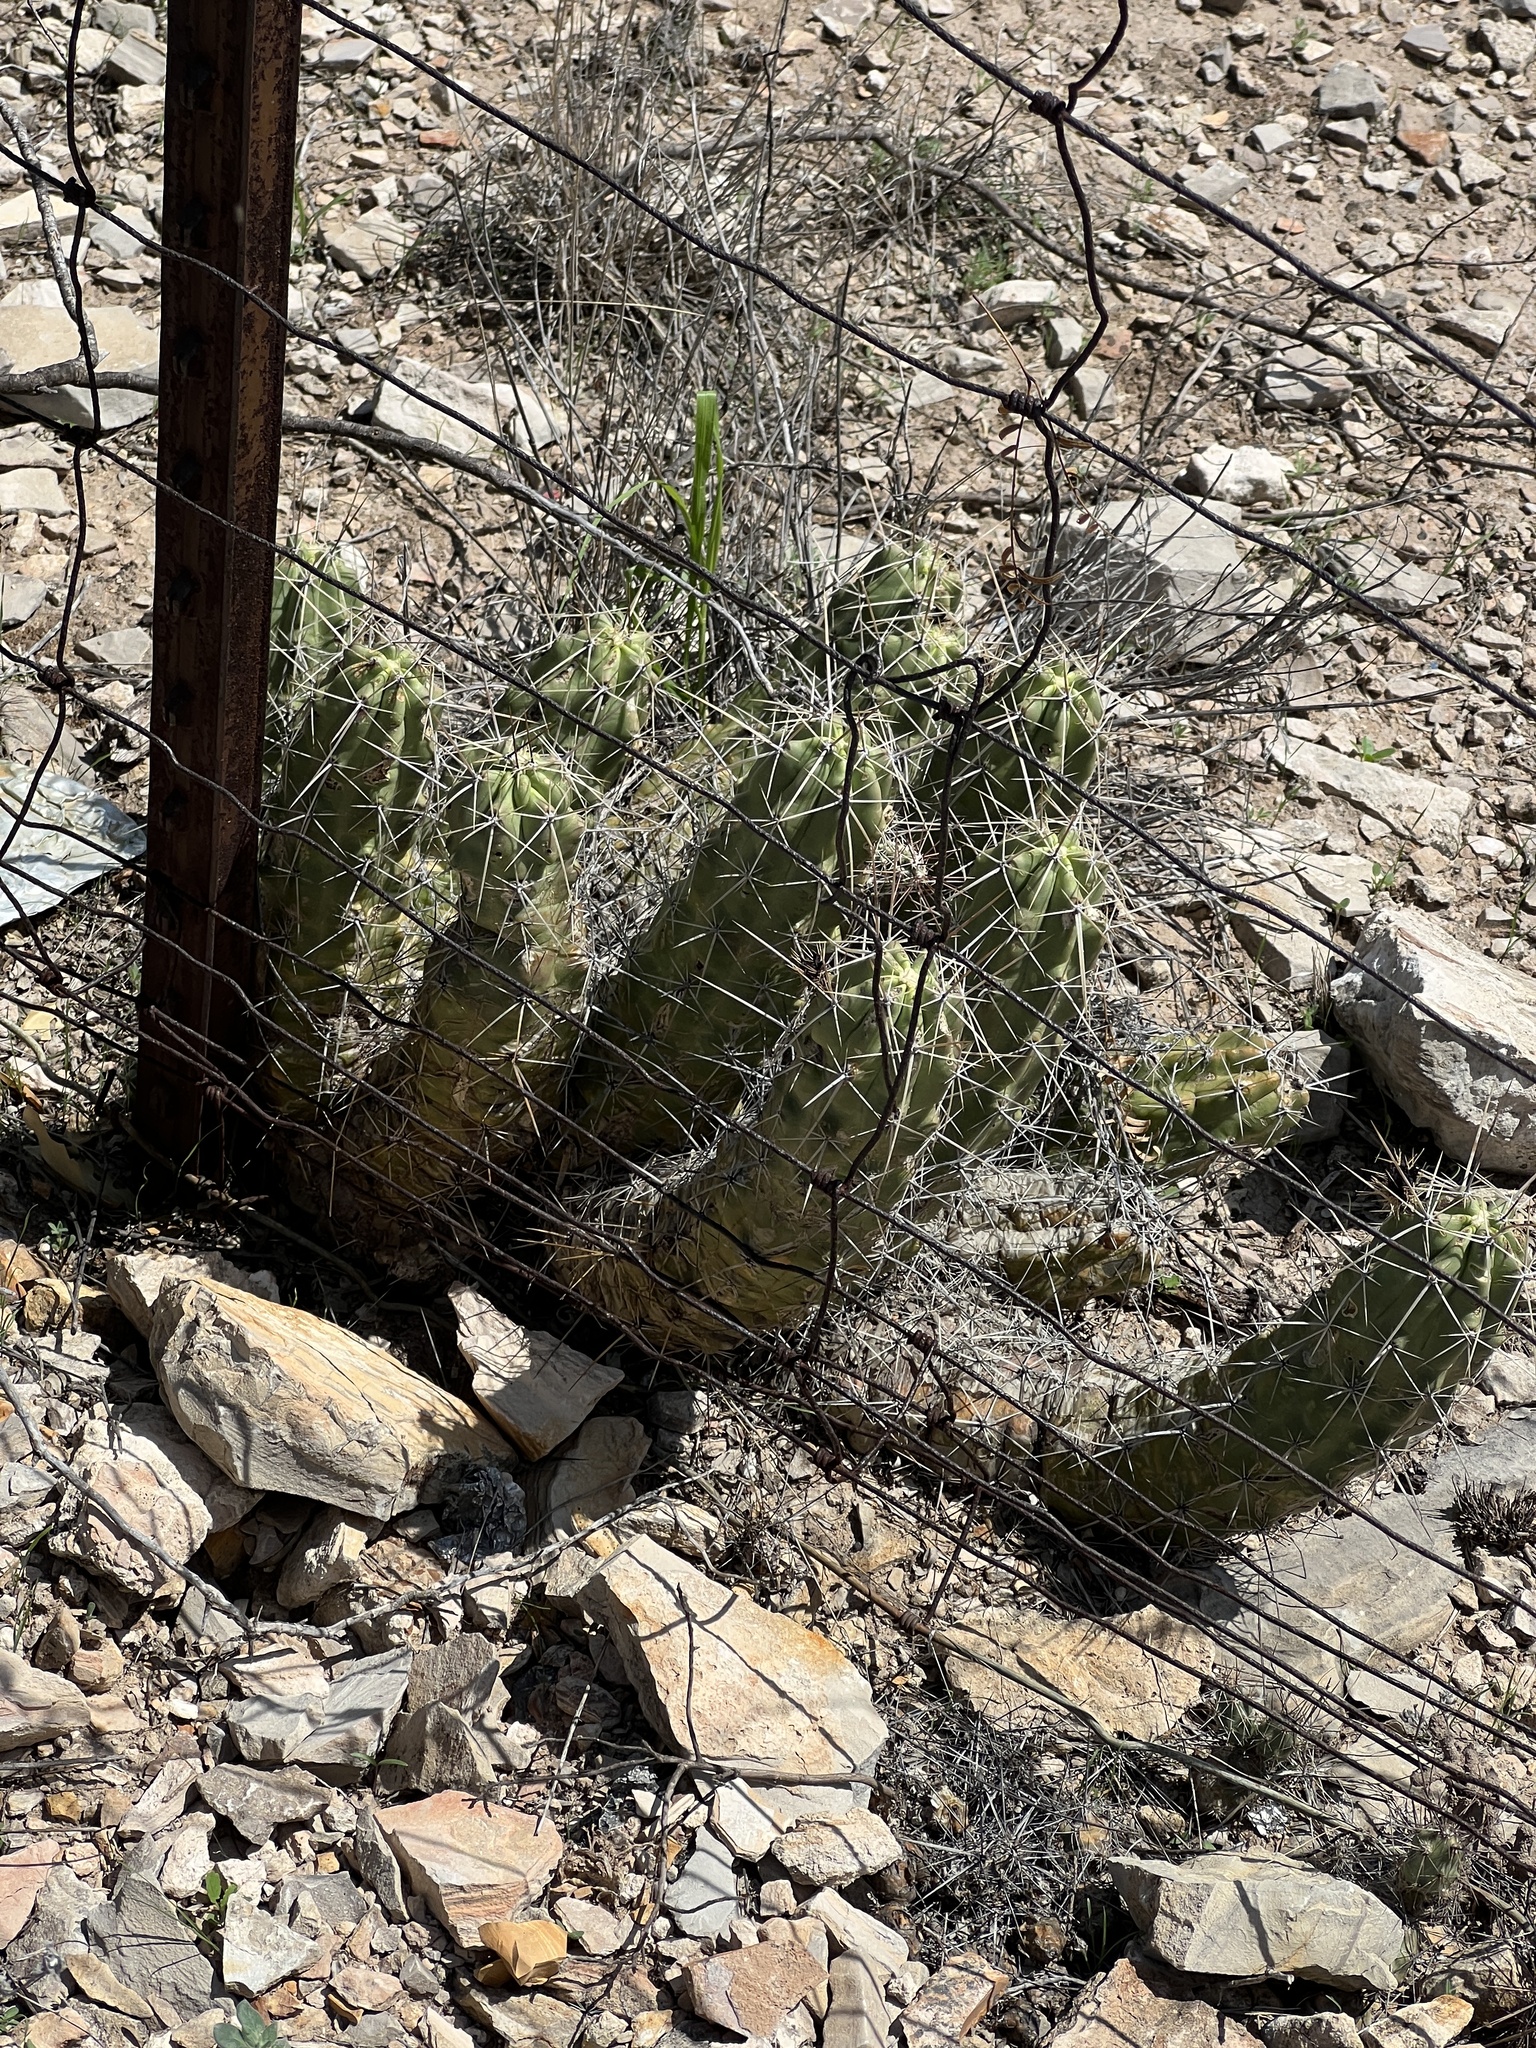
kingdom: Plantae
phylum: Tracheophyta
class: Magnoliopsida
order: Caryophyllales
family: Cactaceae
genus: Echinocereus
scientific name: Echinocereus enneacanthus
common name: Pitaya
